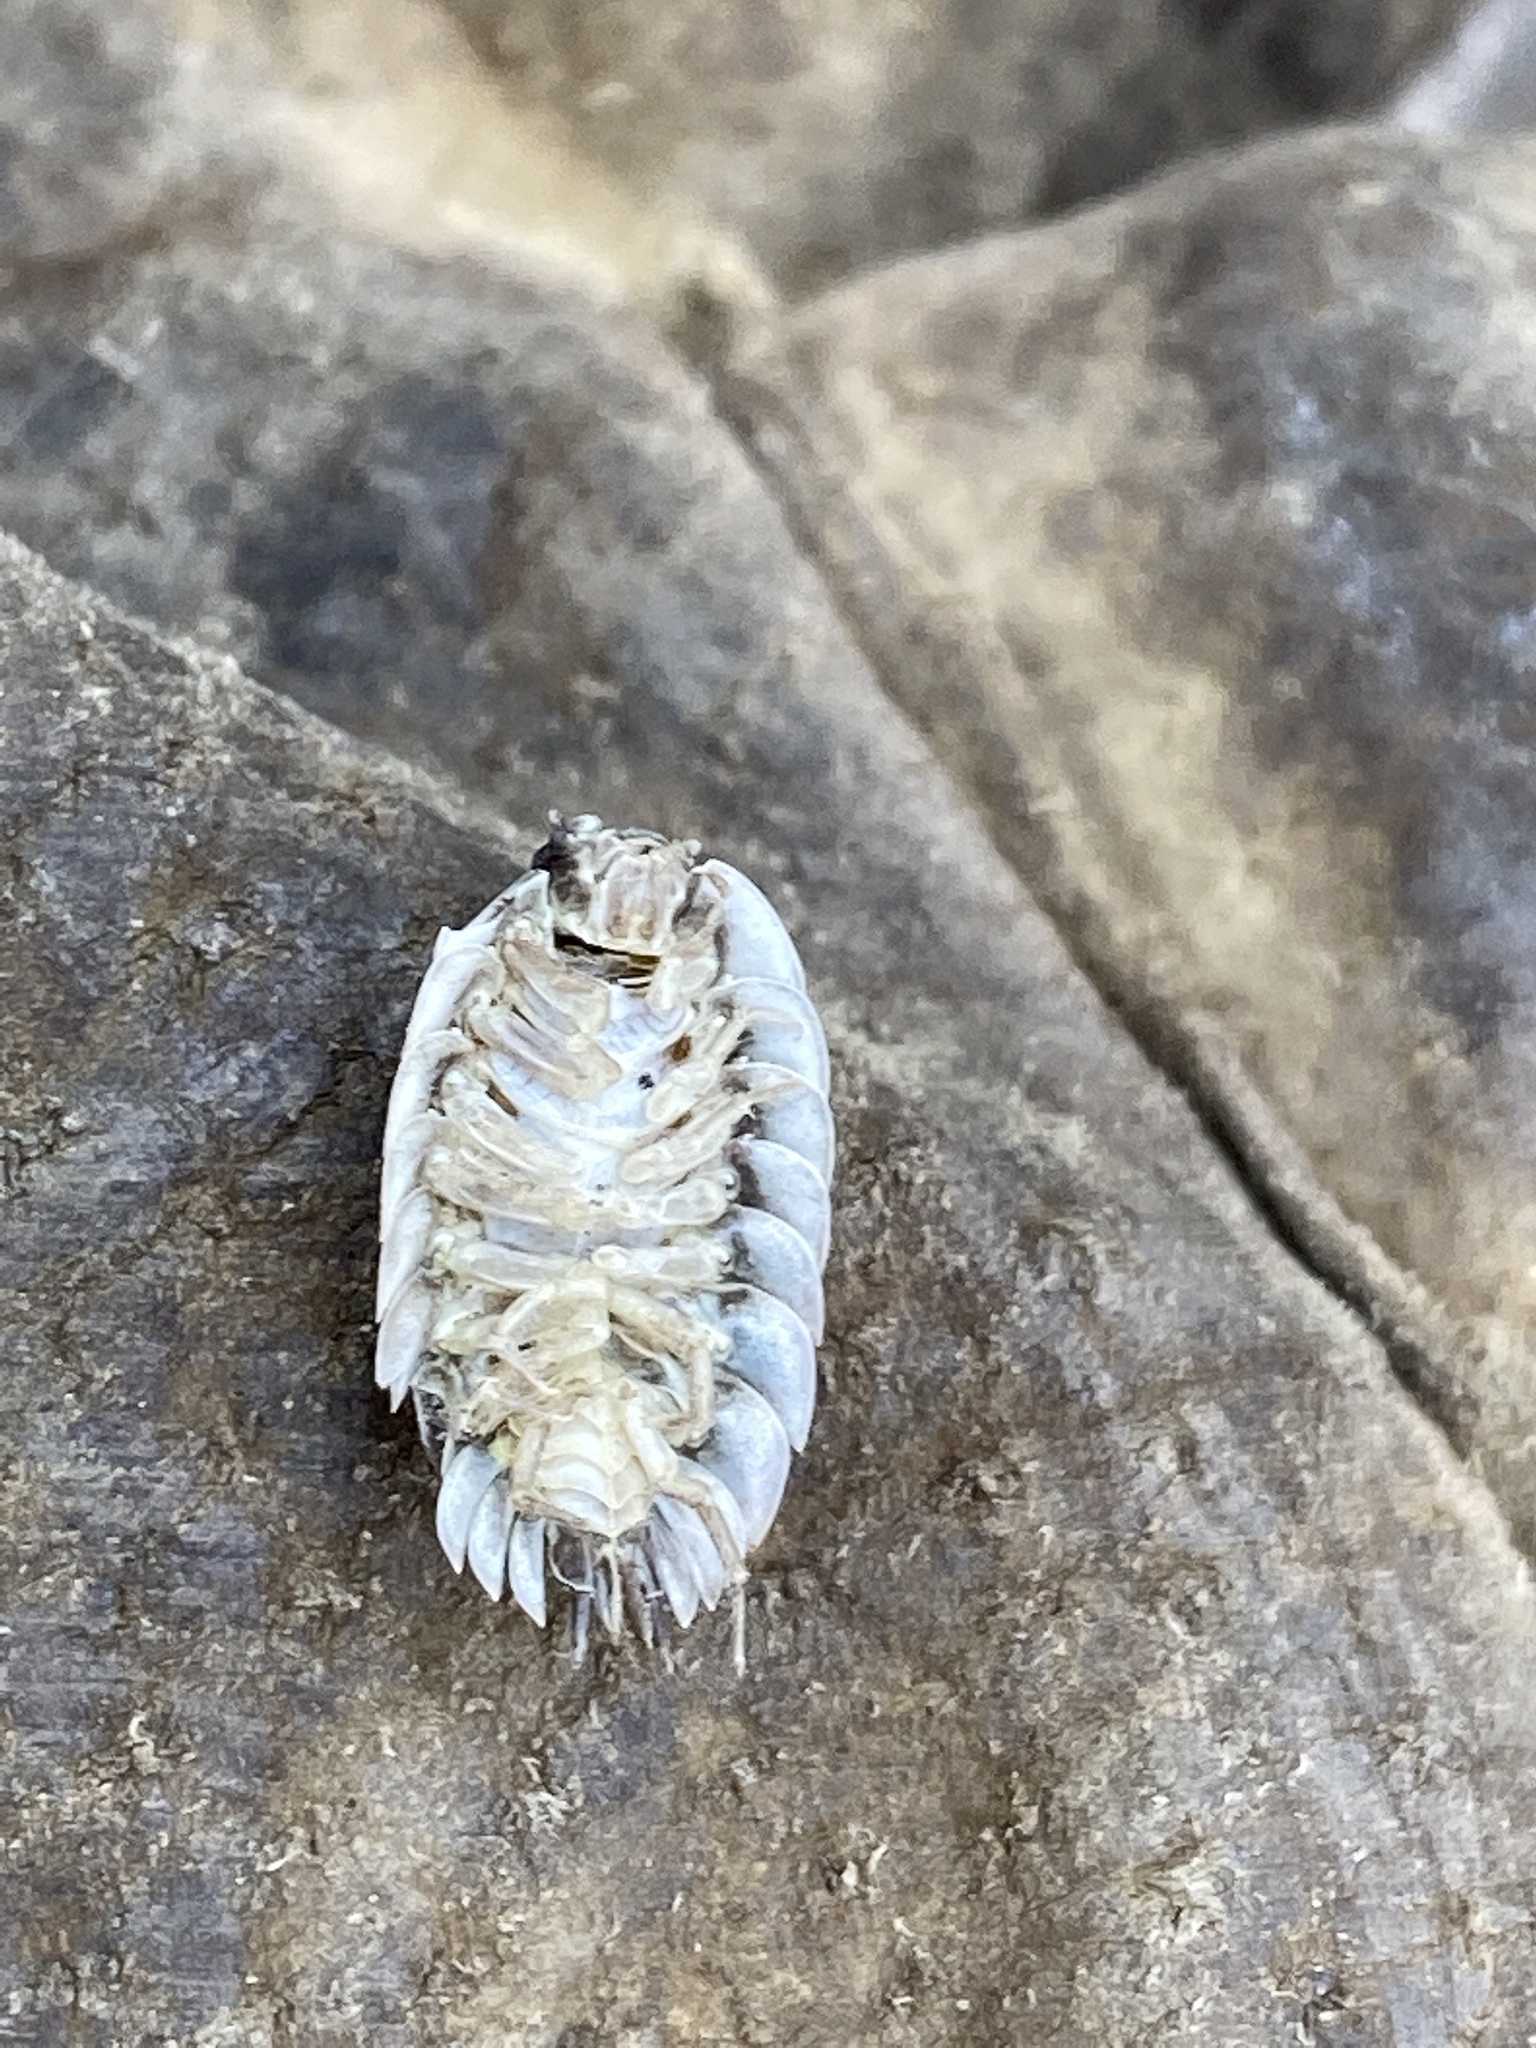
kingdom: Animalia
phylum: Arthropoda
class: Malacostraca
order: Isopoda
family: Oniscidae
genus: Oniscus
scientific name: Oniscus asellus
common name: Common shiny woodlouse
